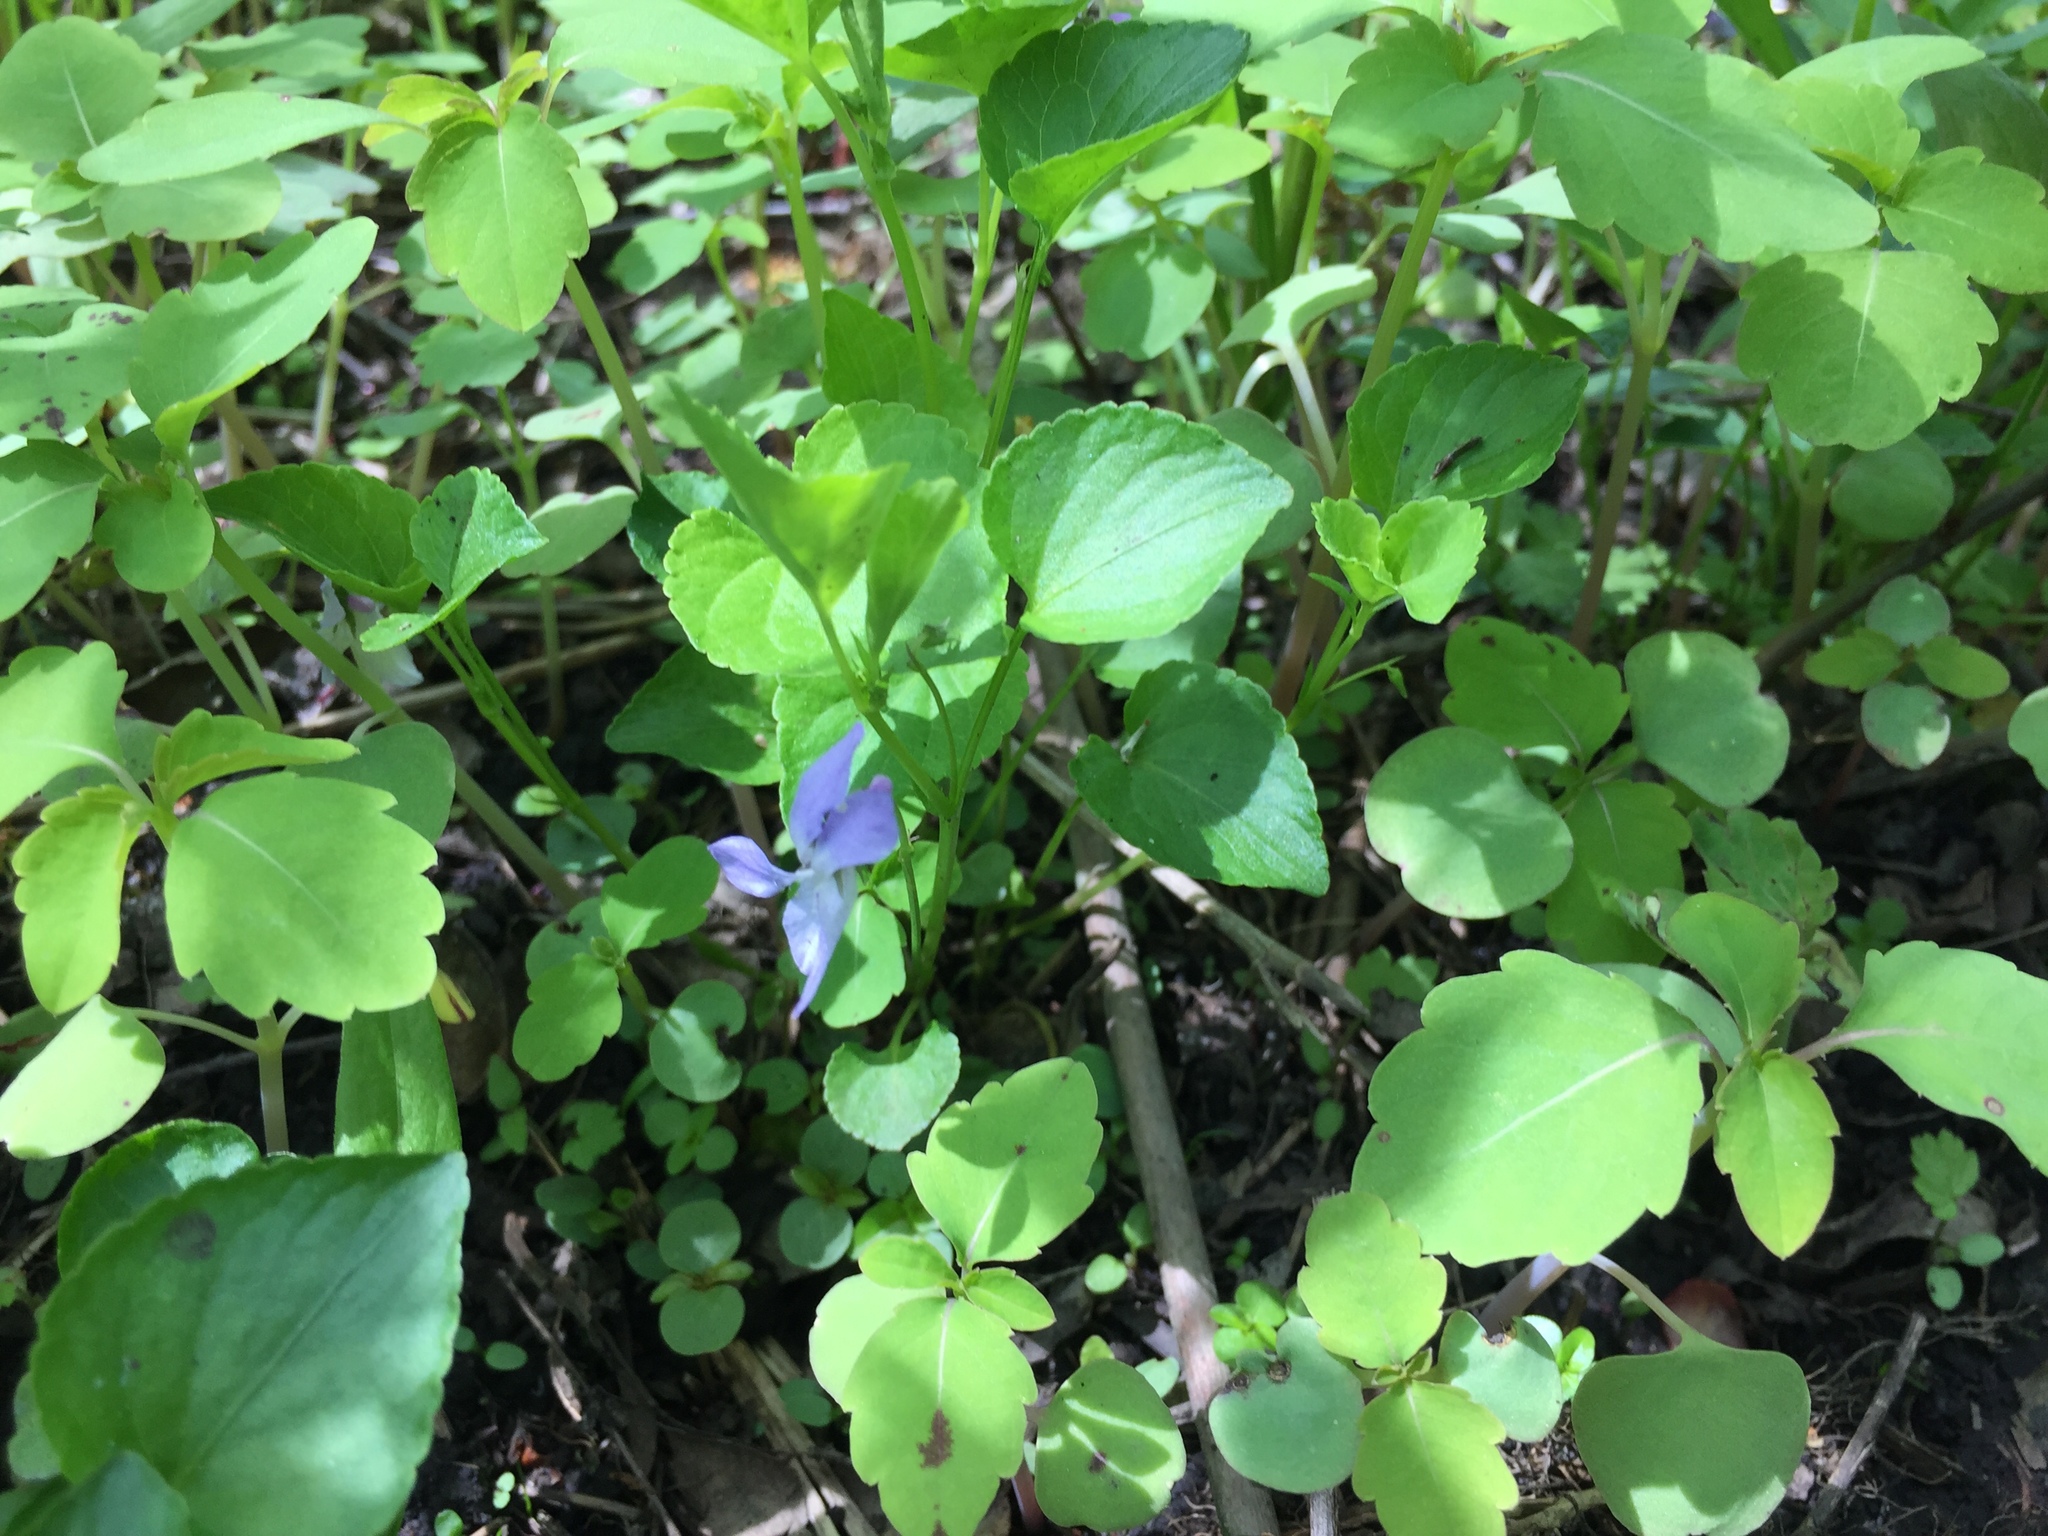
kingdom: Plantae
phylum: Tracheophyta
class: Magnoliopsida
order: Malpighiales
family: Violaceae
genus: Viola
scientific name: Viola labradorica
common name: Labrador violet
